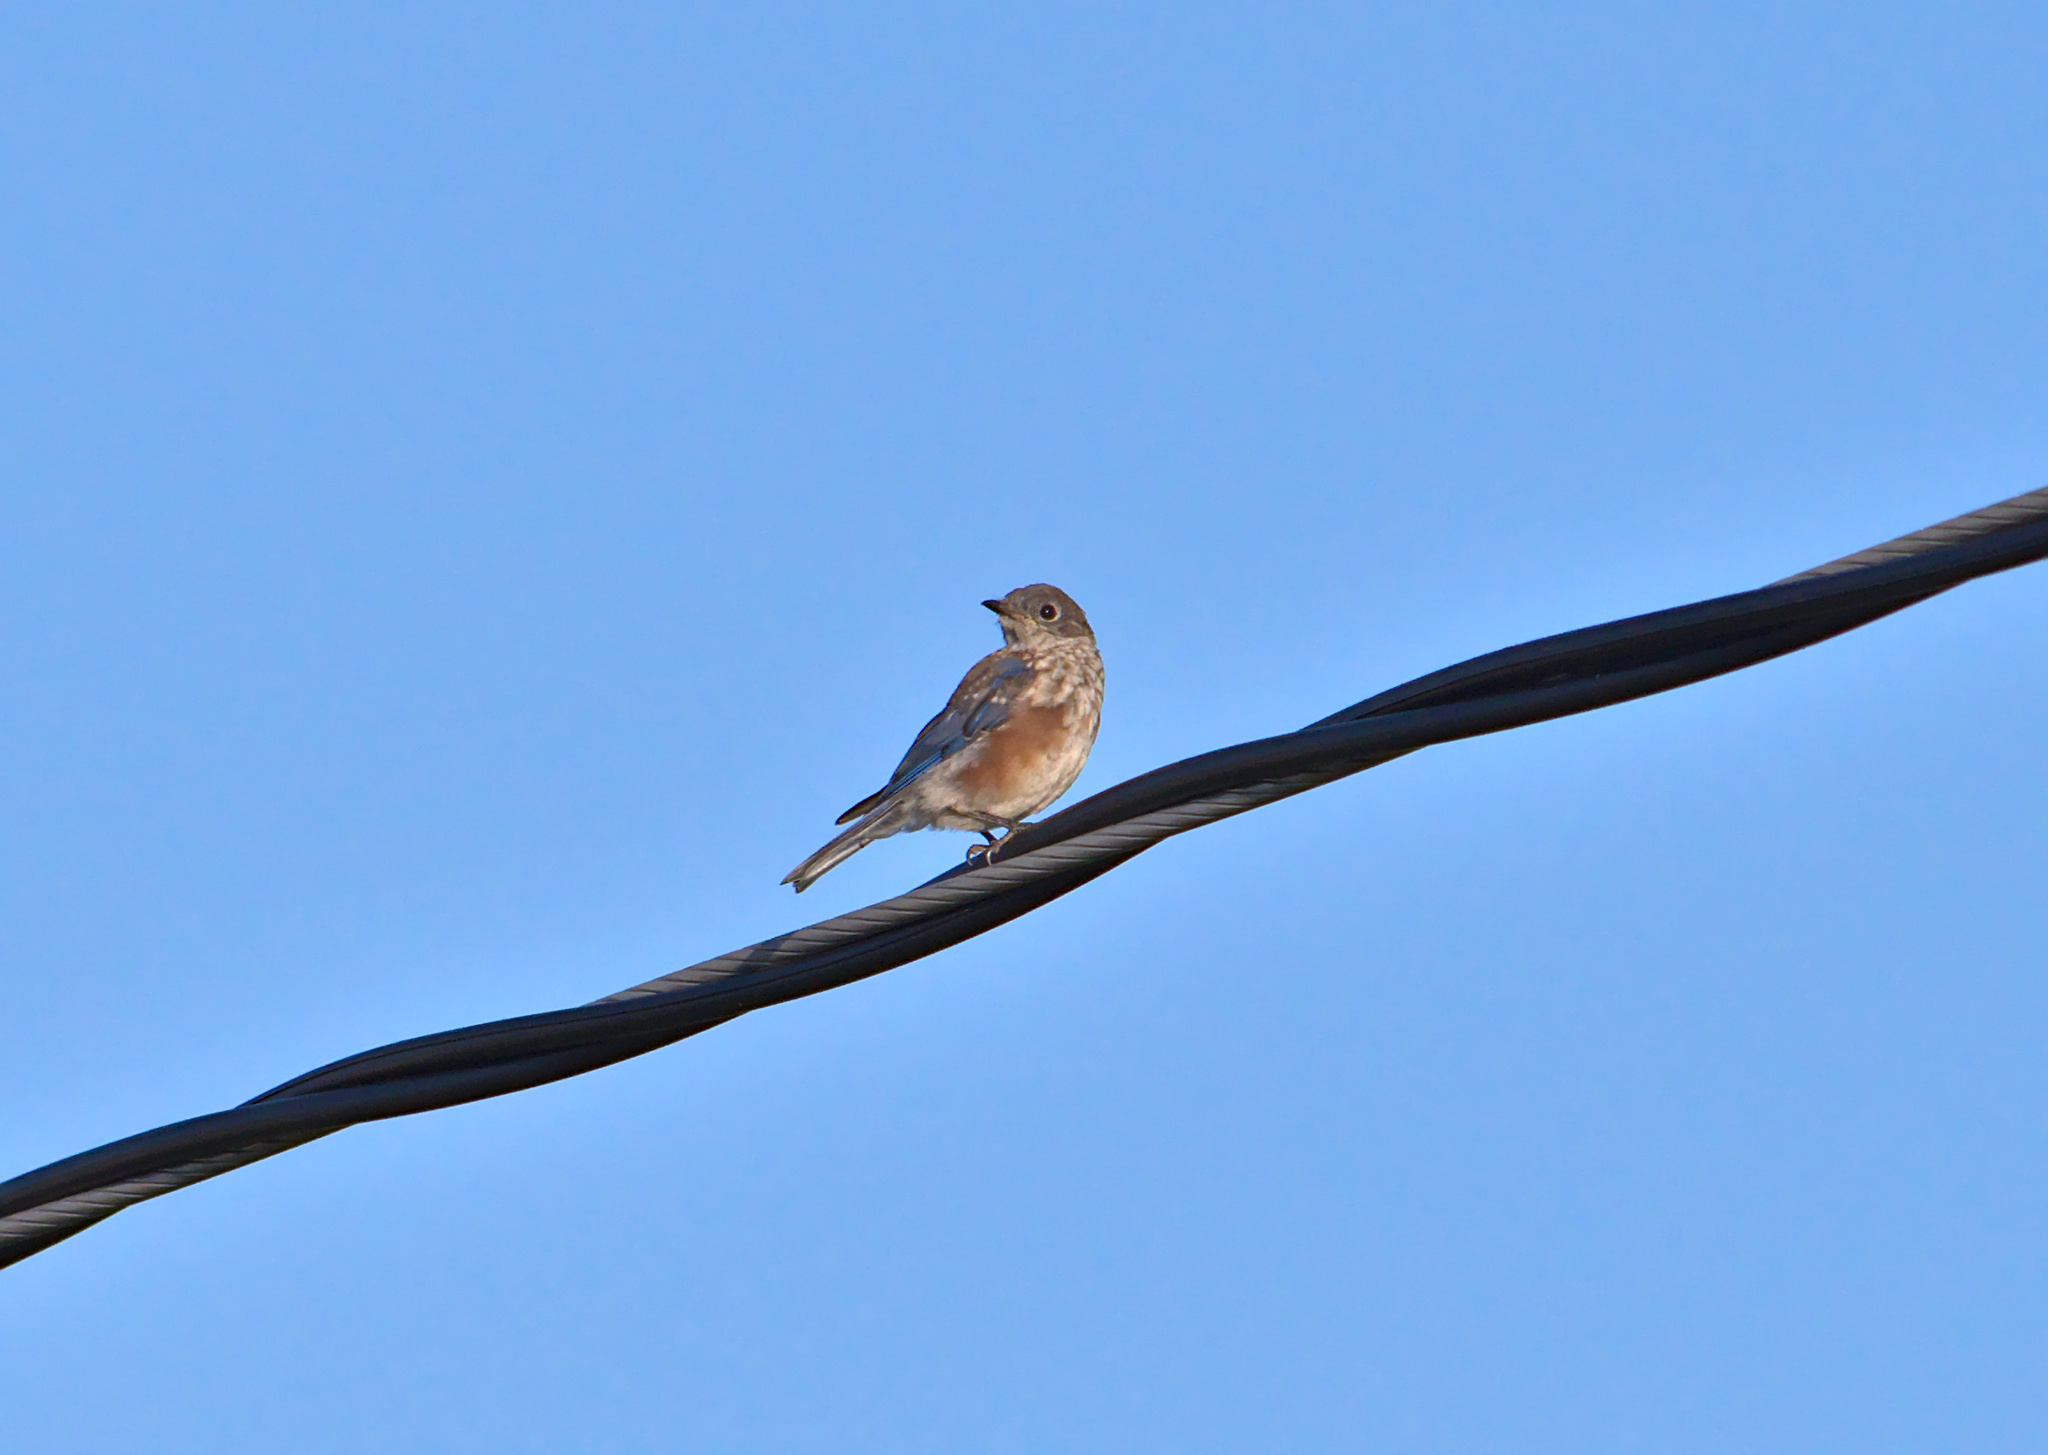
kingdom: Animalia
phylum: Chordata
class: Aves
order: Passeriformes
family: Turdidae
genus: Sialia
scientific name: Sialia sialis
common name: Eastern bluebird
